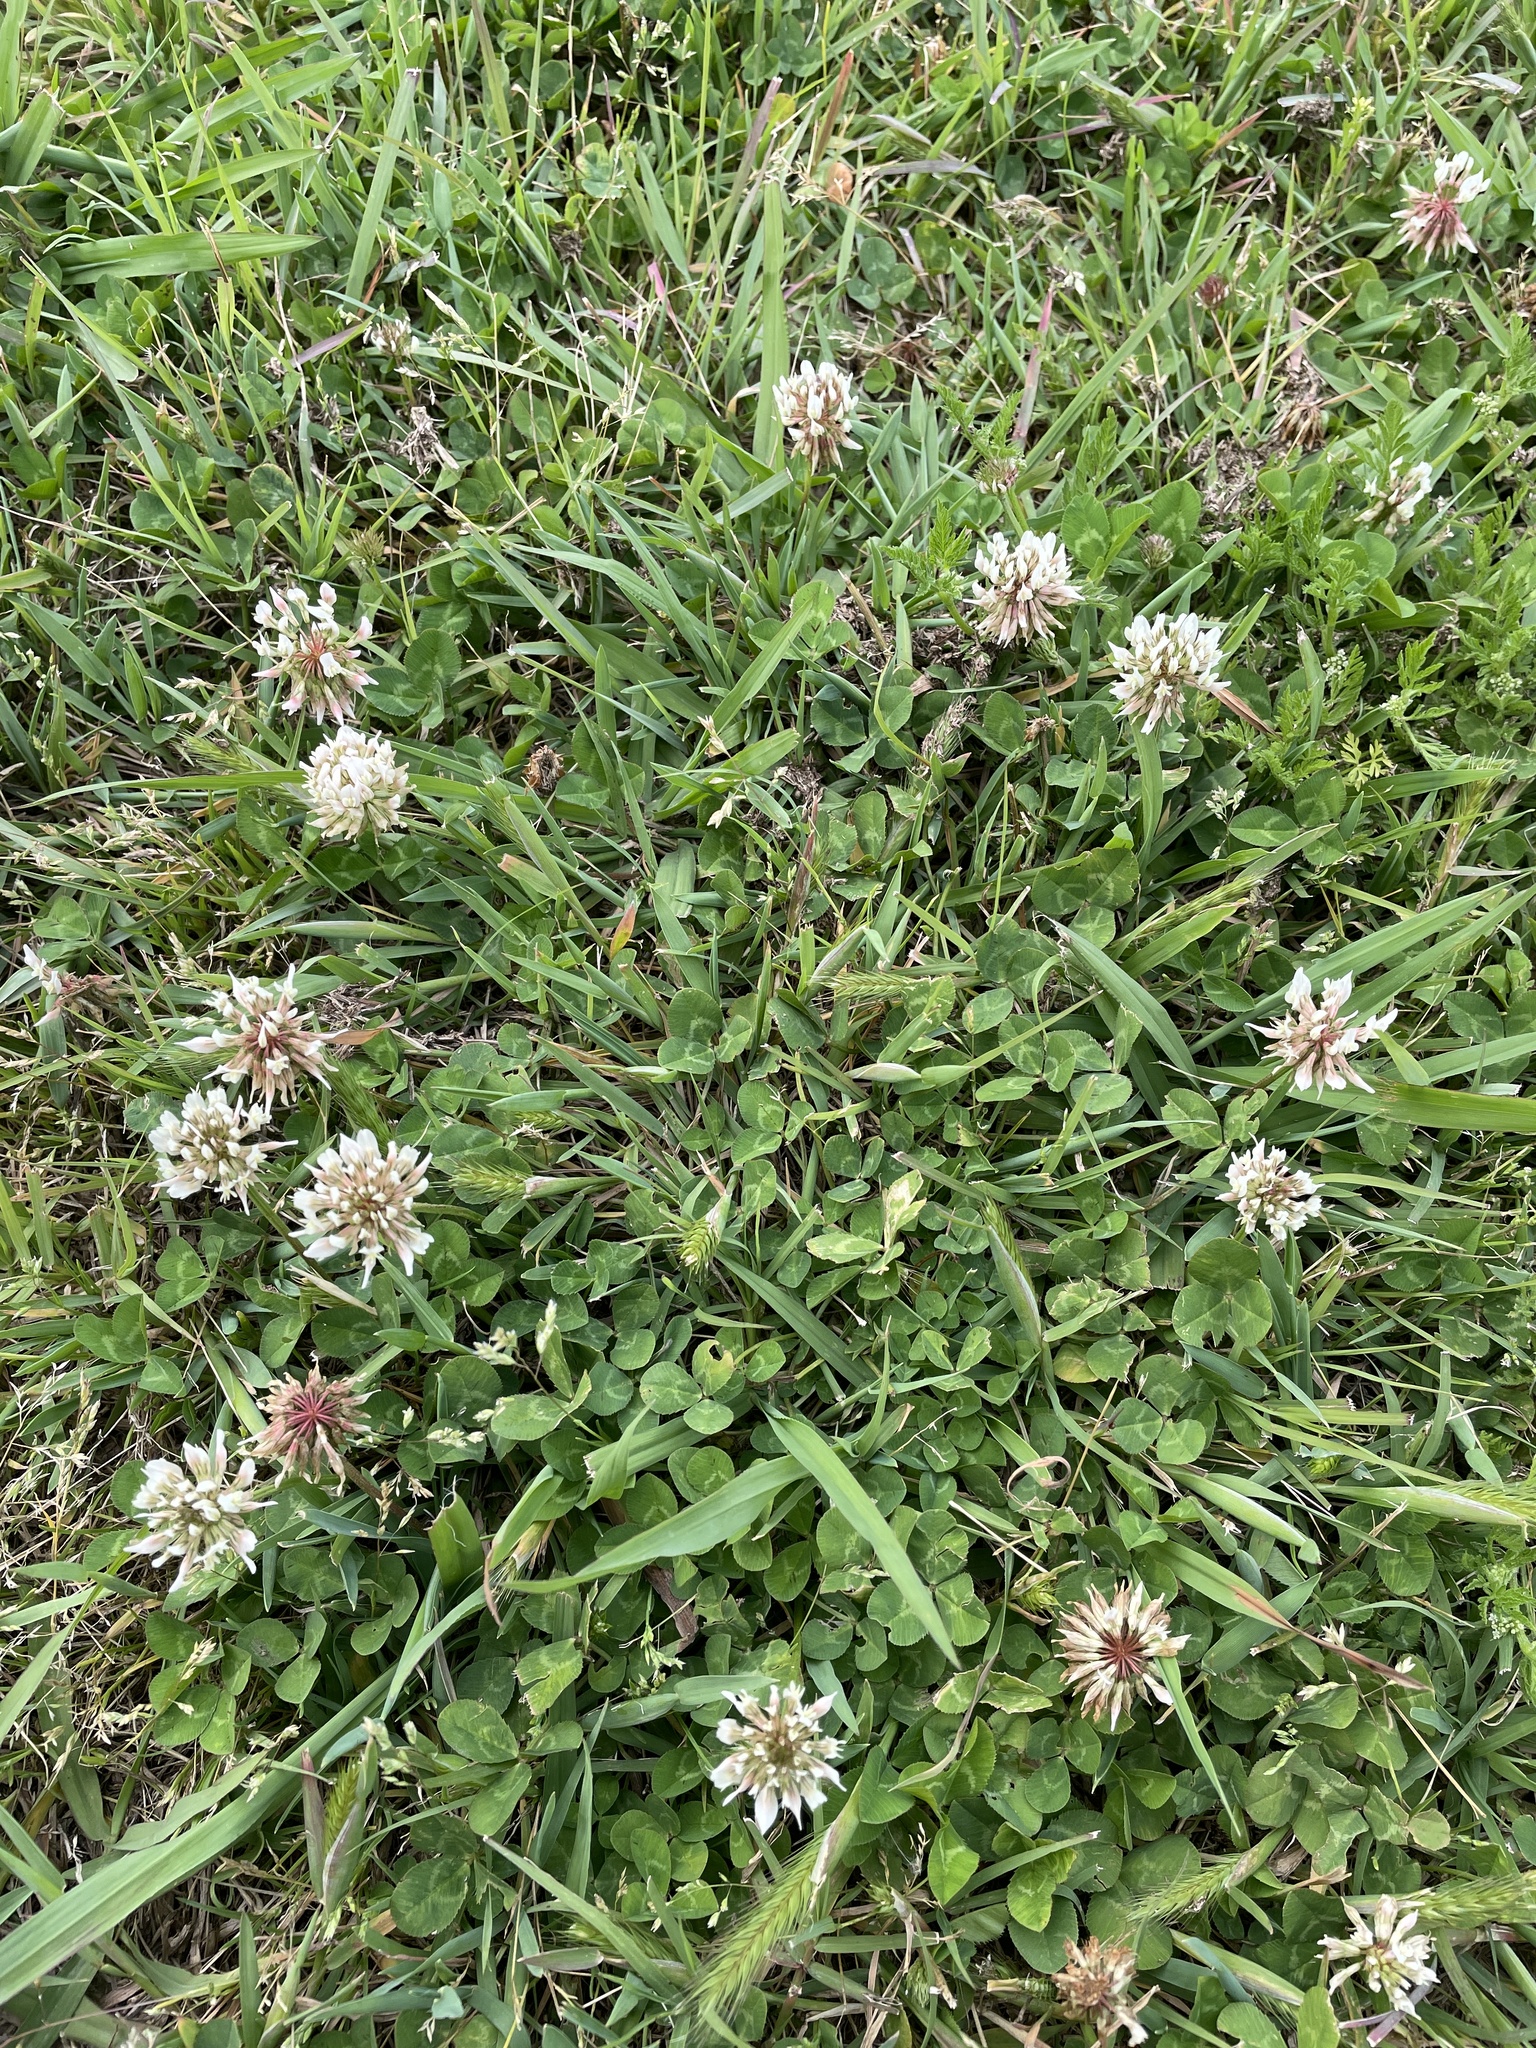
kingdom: Plantae
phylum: Tracheophyta
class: Magnoliopsida
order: Fabales
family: Fabaceae
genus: Trifolium
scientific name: Trifolium repens
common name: White clover
